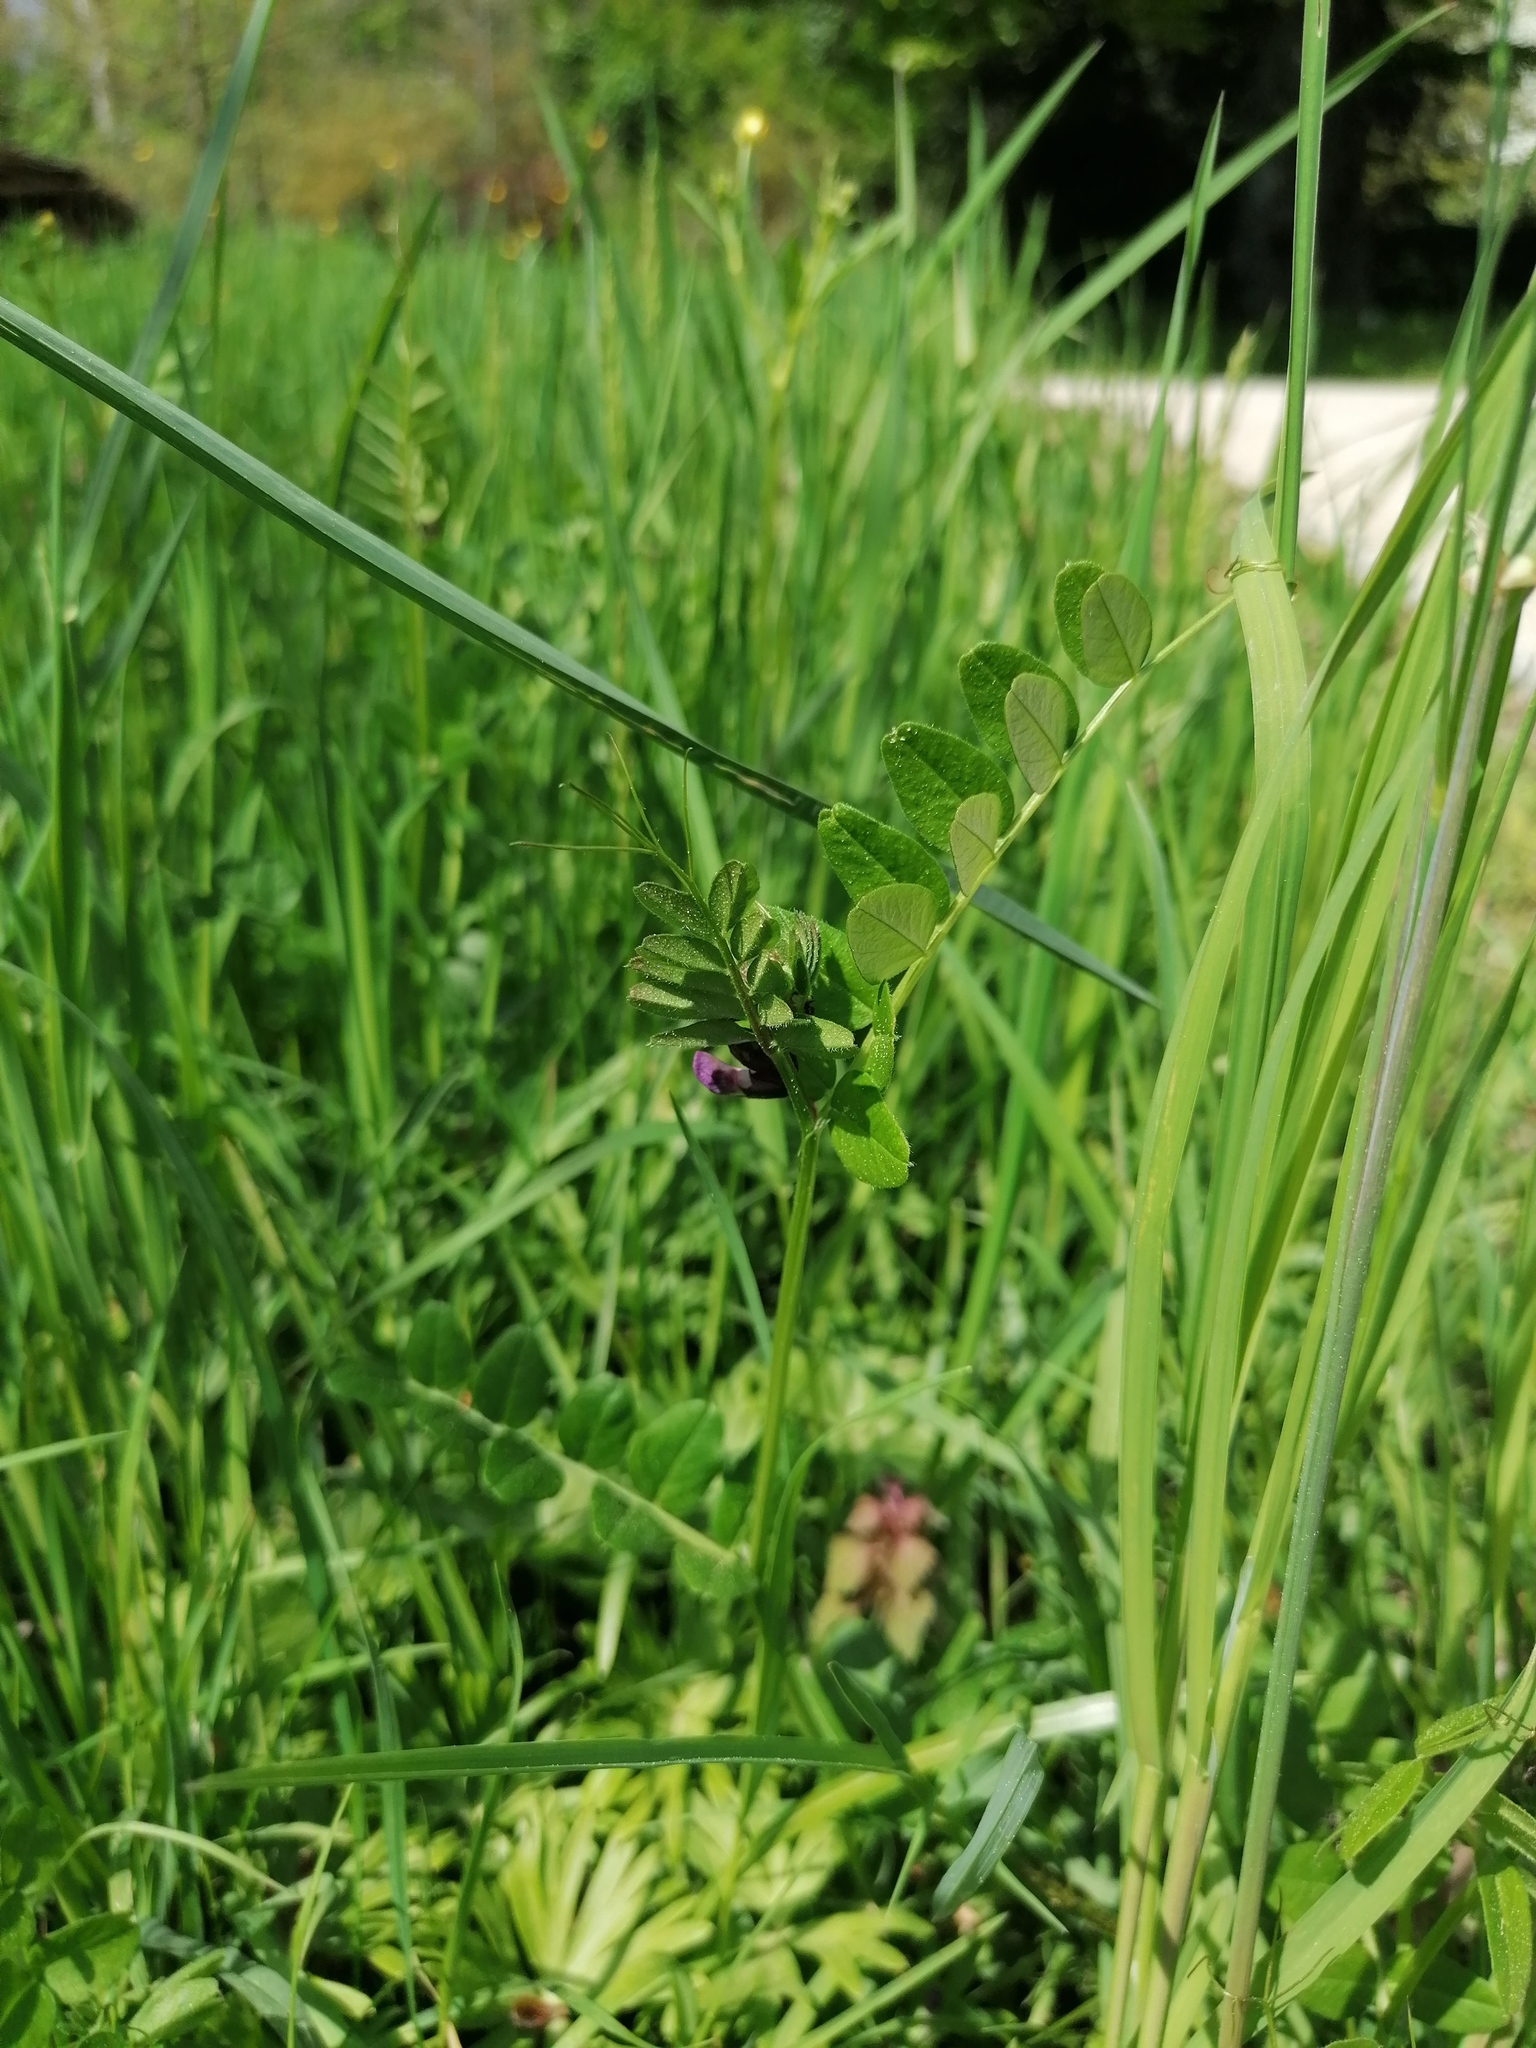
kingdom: Plantae
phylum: Tracheophyta
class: Magnoliopsida
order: Fabales
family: Fabaceae
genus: Vicia
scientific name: Vicia sepium
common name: Bush vetch
